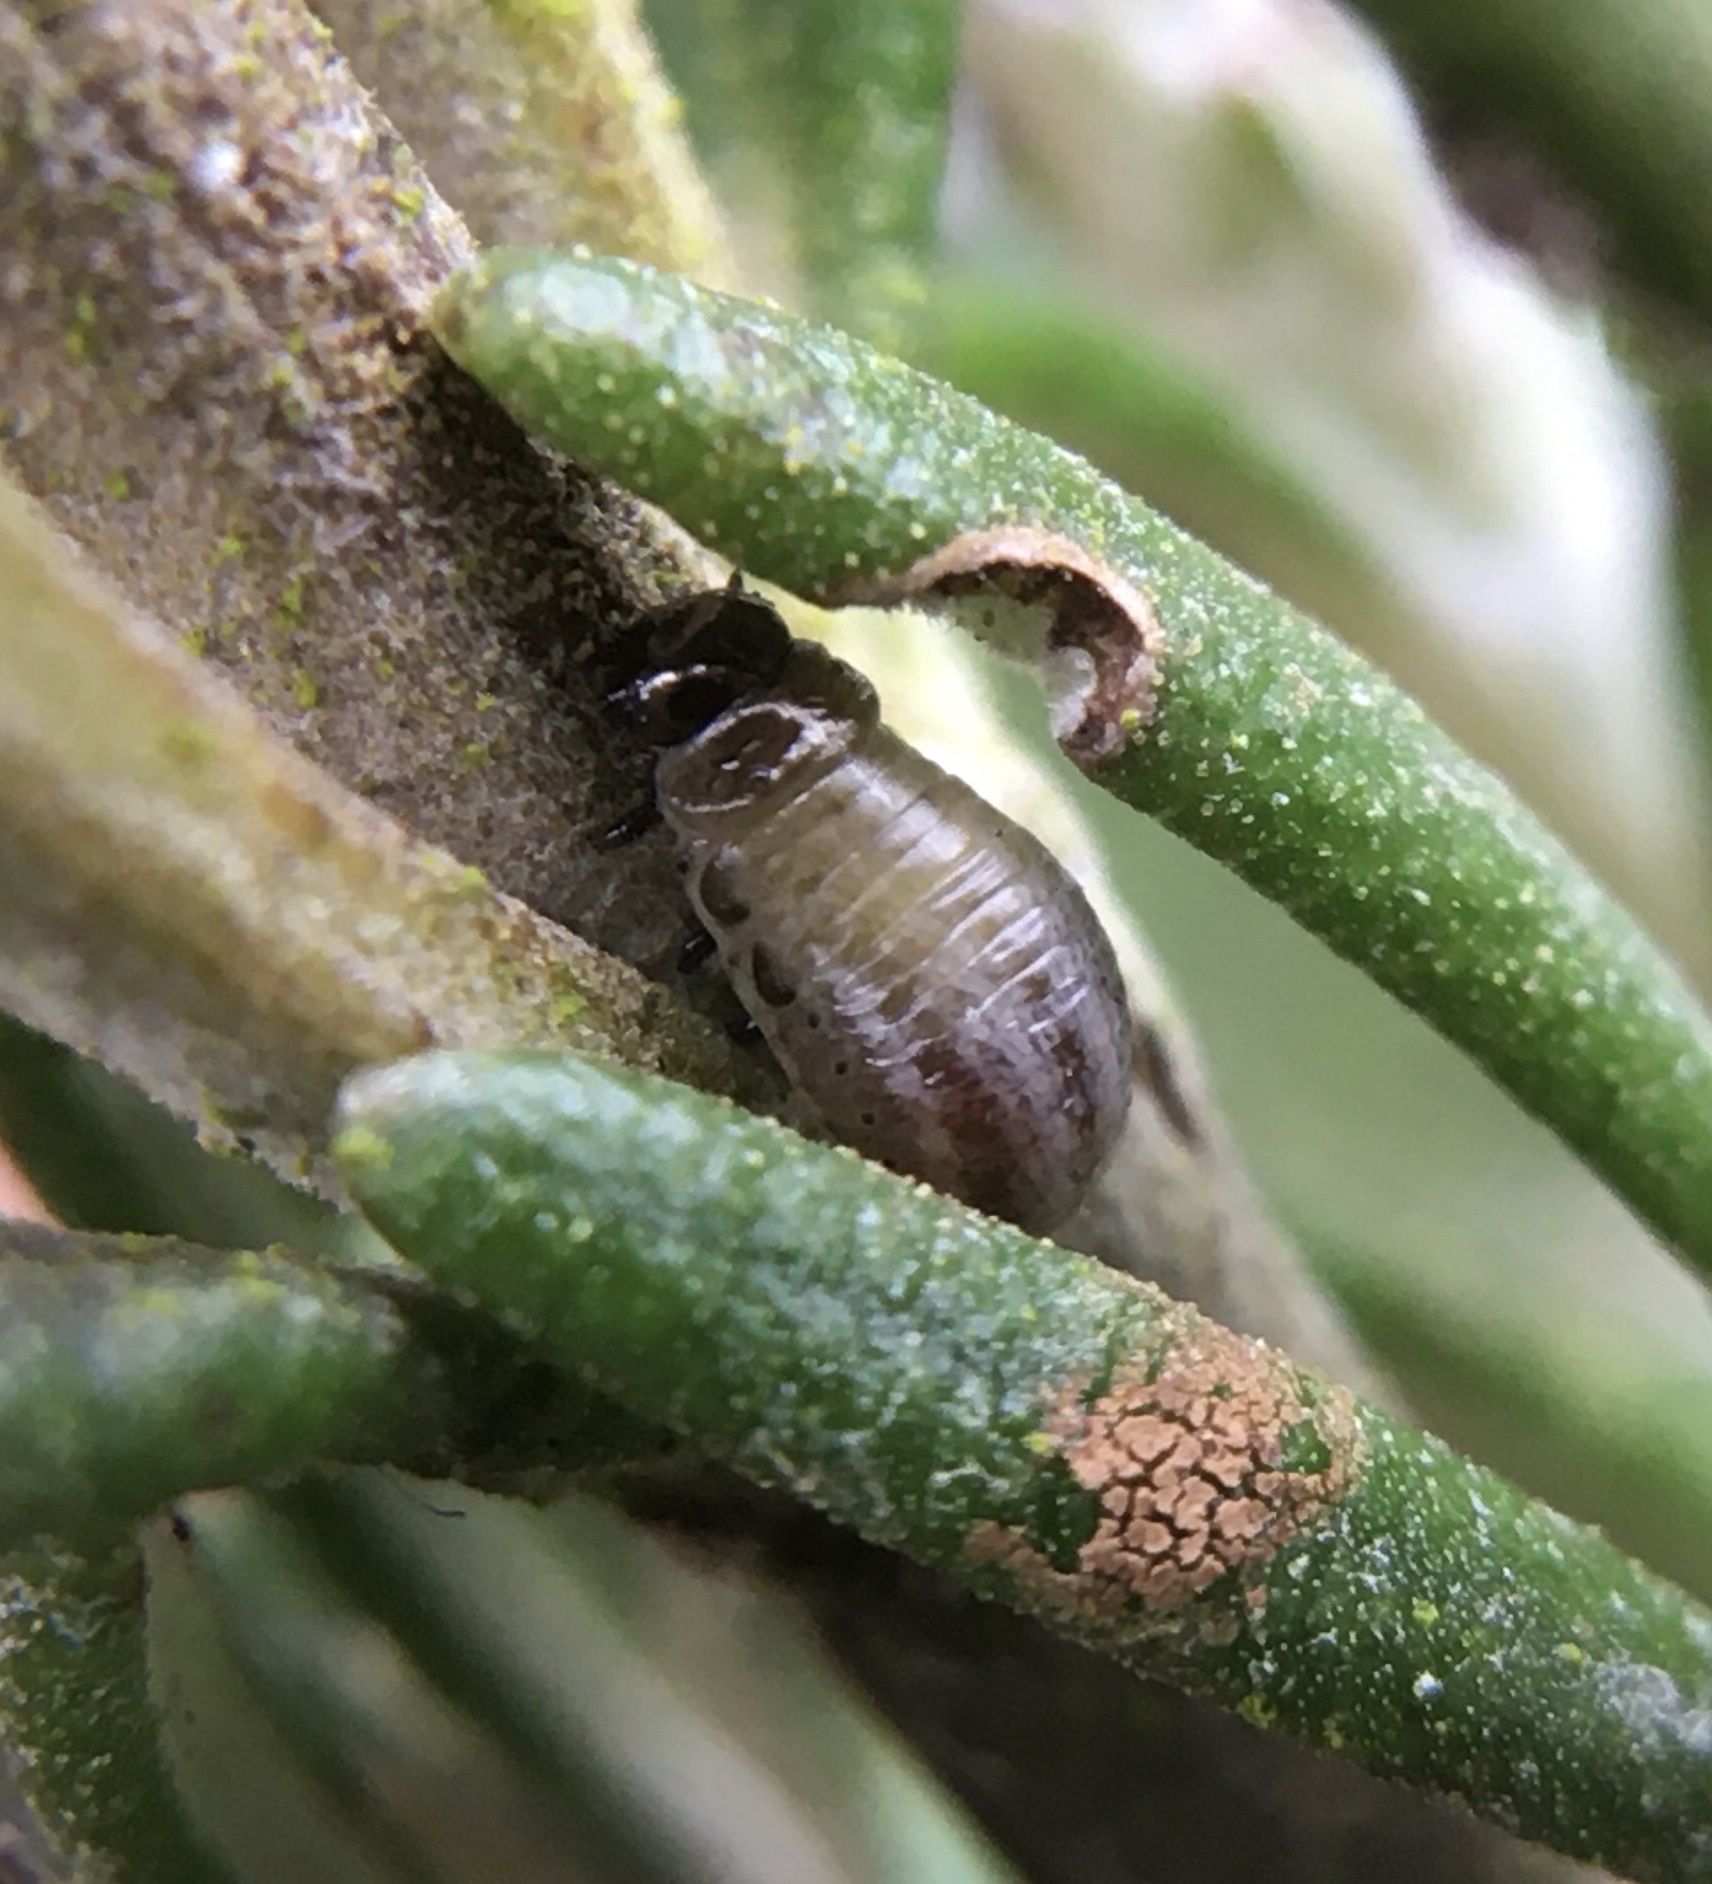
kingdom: Animalia
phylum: Arthropoda
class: Insecta
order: Coleoptera
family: Chrysomelidae
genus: Chrysolina
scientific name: Chrysolina americana
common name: Rosemary beetle
